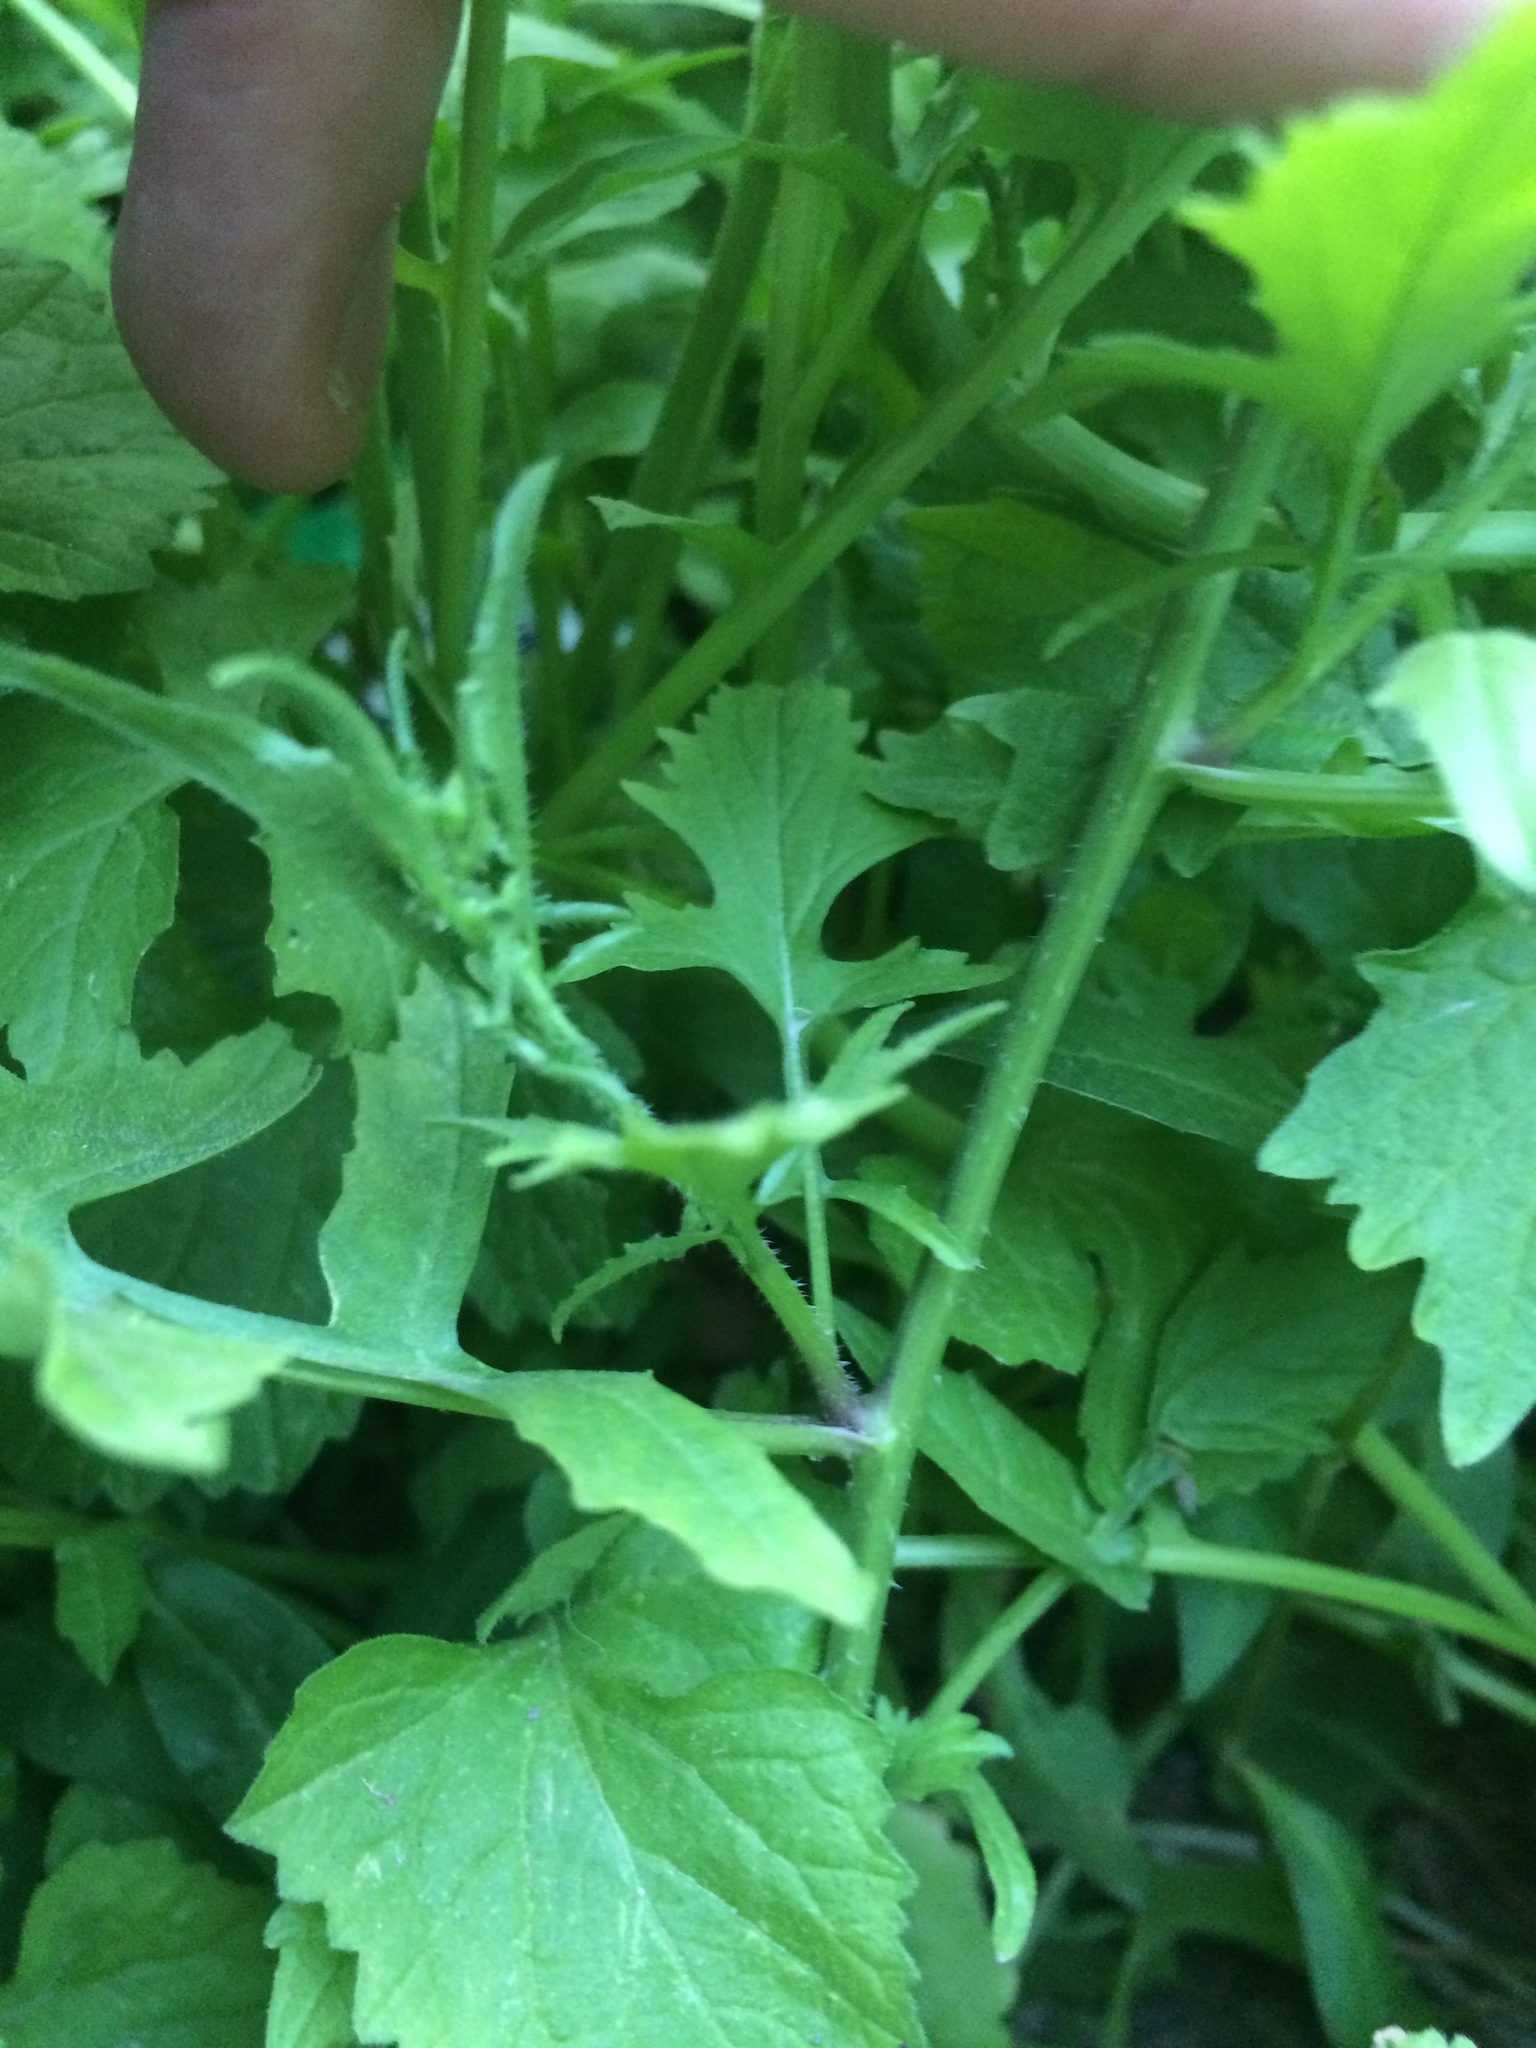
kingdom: Plantae
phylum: Tracheophyta
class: Magnoliopsida
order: Brassicales
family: Brassicaceae
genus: Sisymbrium
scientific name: Sisymbrium officinale
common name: Hedge mustard
